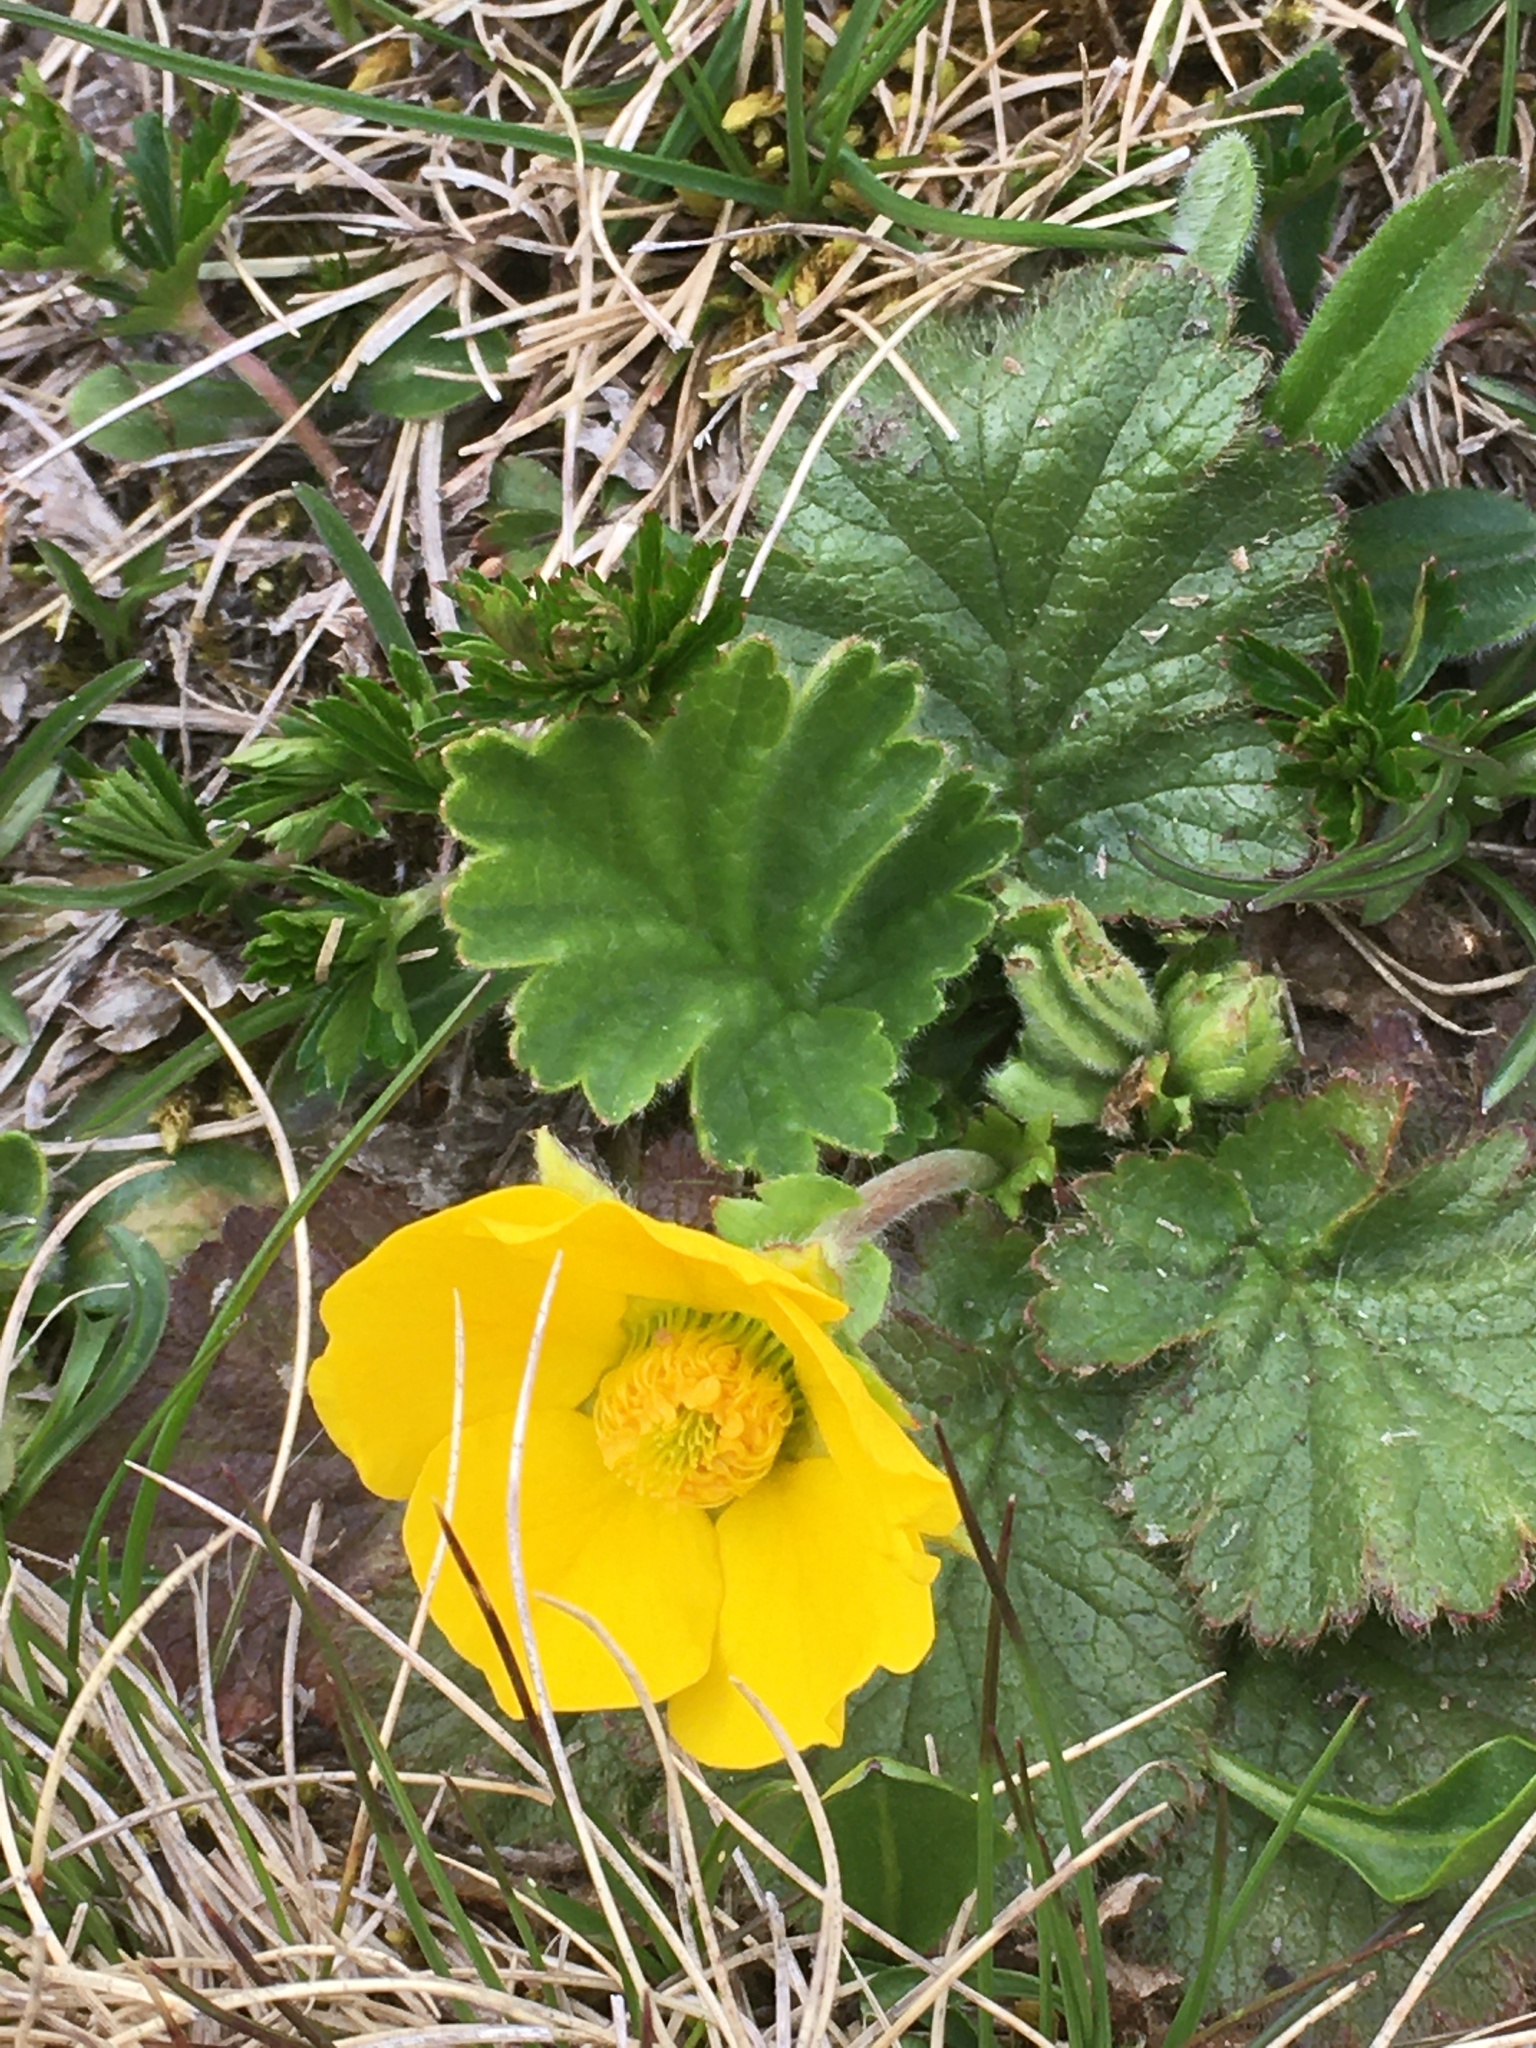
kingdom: Plantae
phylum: Tracheophyta
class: Magnoliopsida
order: Rosales
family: Rosaceae
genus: Geum
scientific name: Geum montanum
